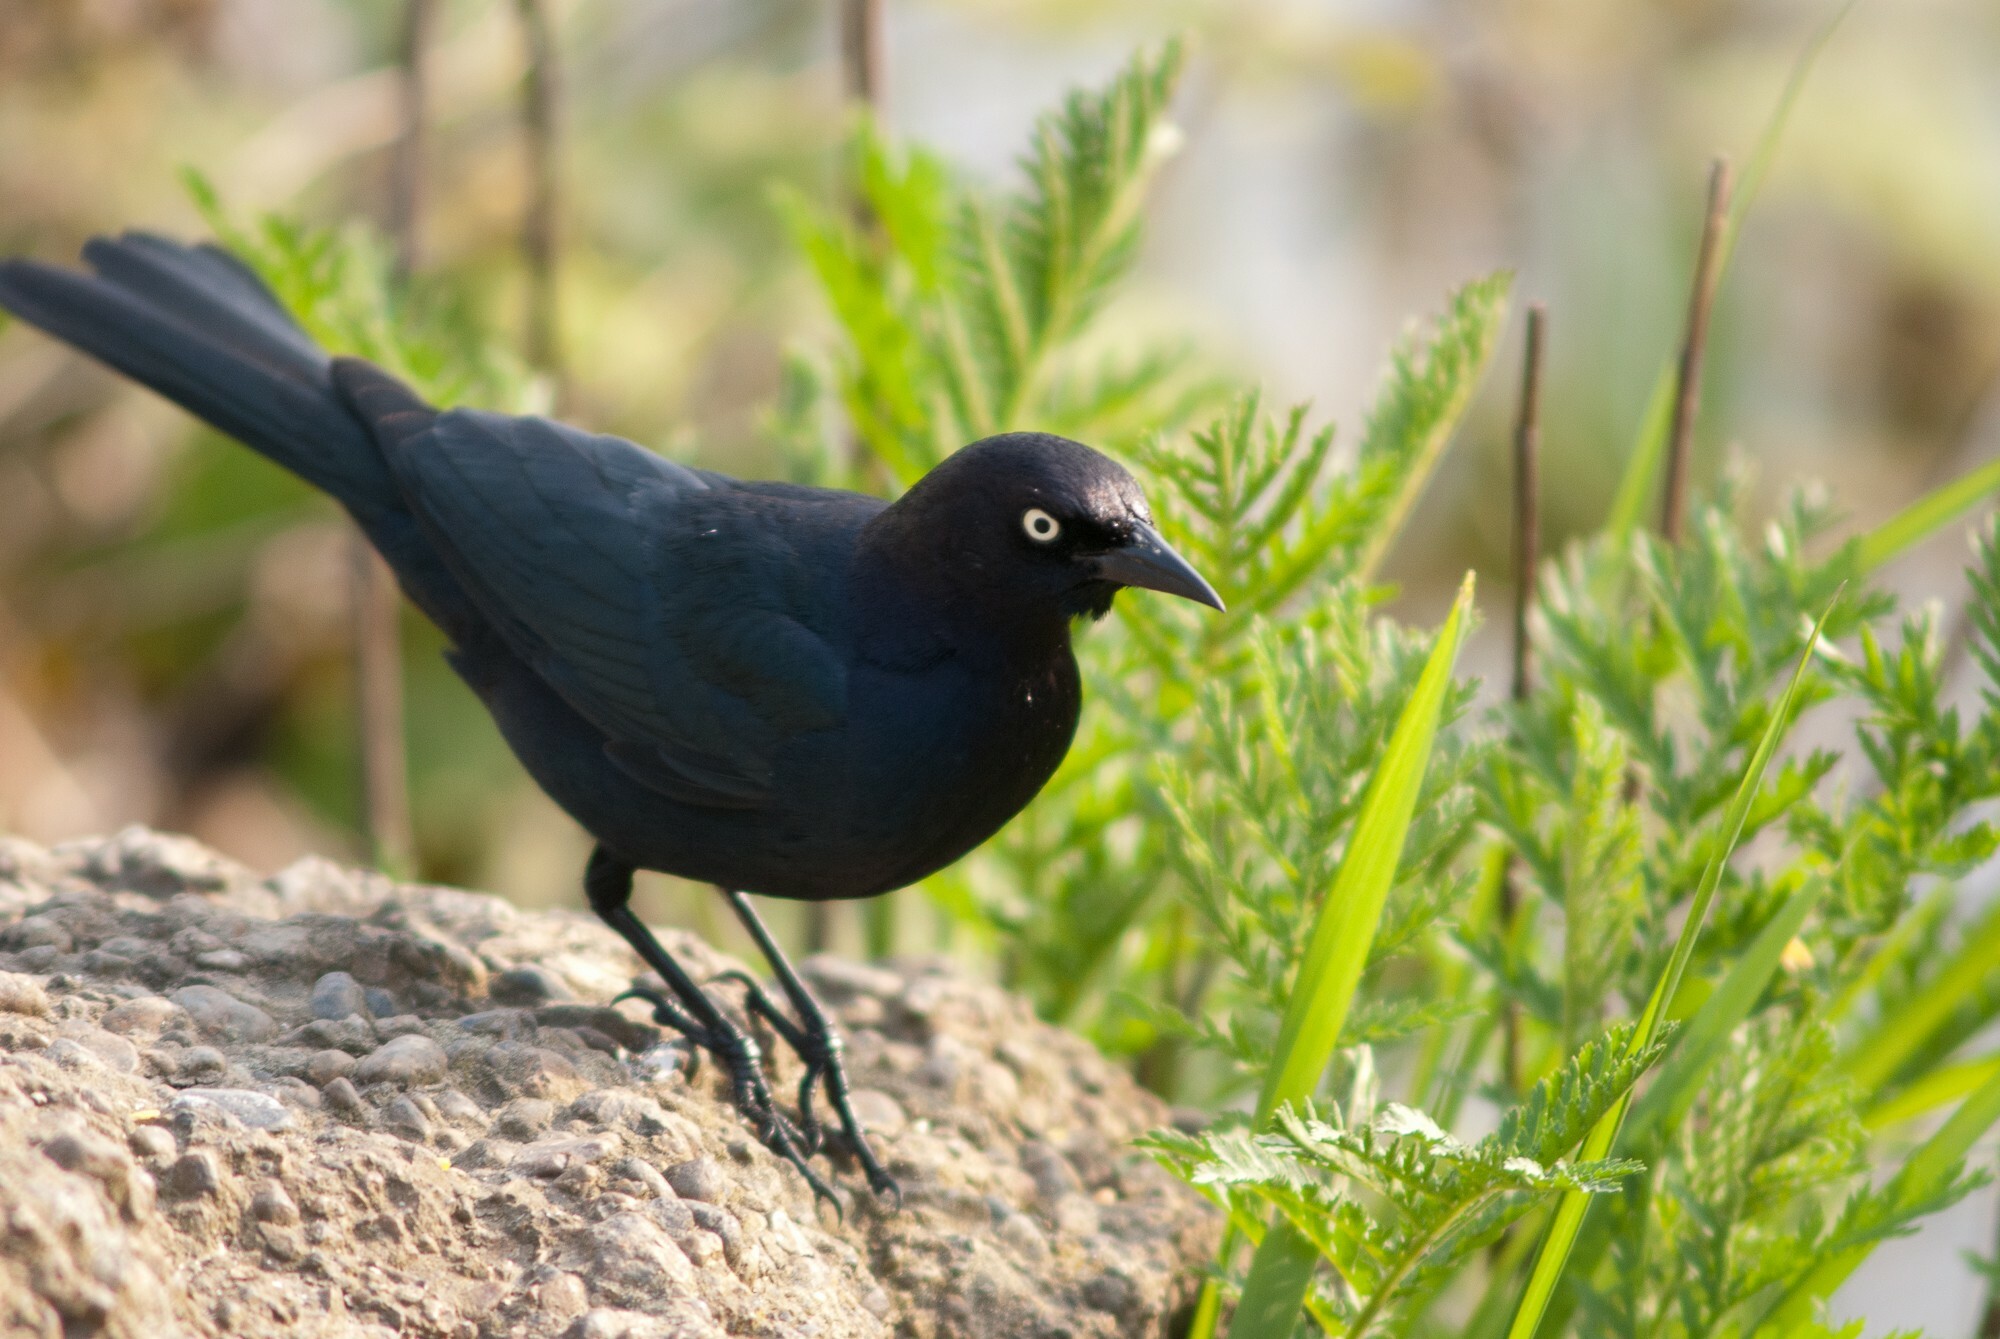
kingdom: Animalia
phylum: Chordata
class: Aves
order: Passeriformes
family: Icteridae
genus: Euphagus
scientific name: Euphagus cyanocephalus
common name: Brewer's blackbird
